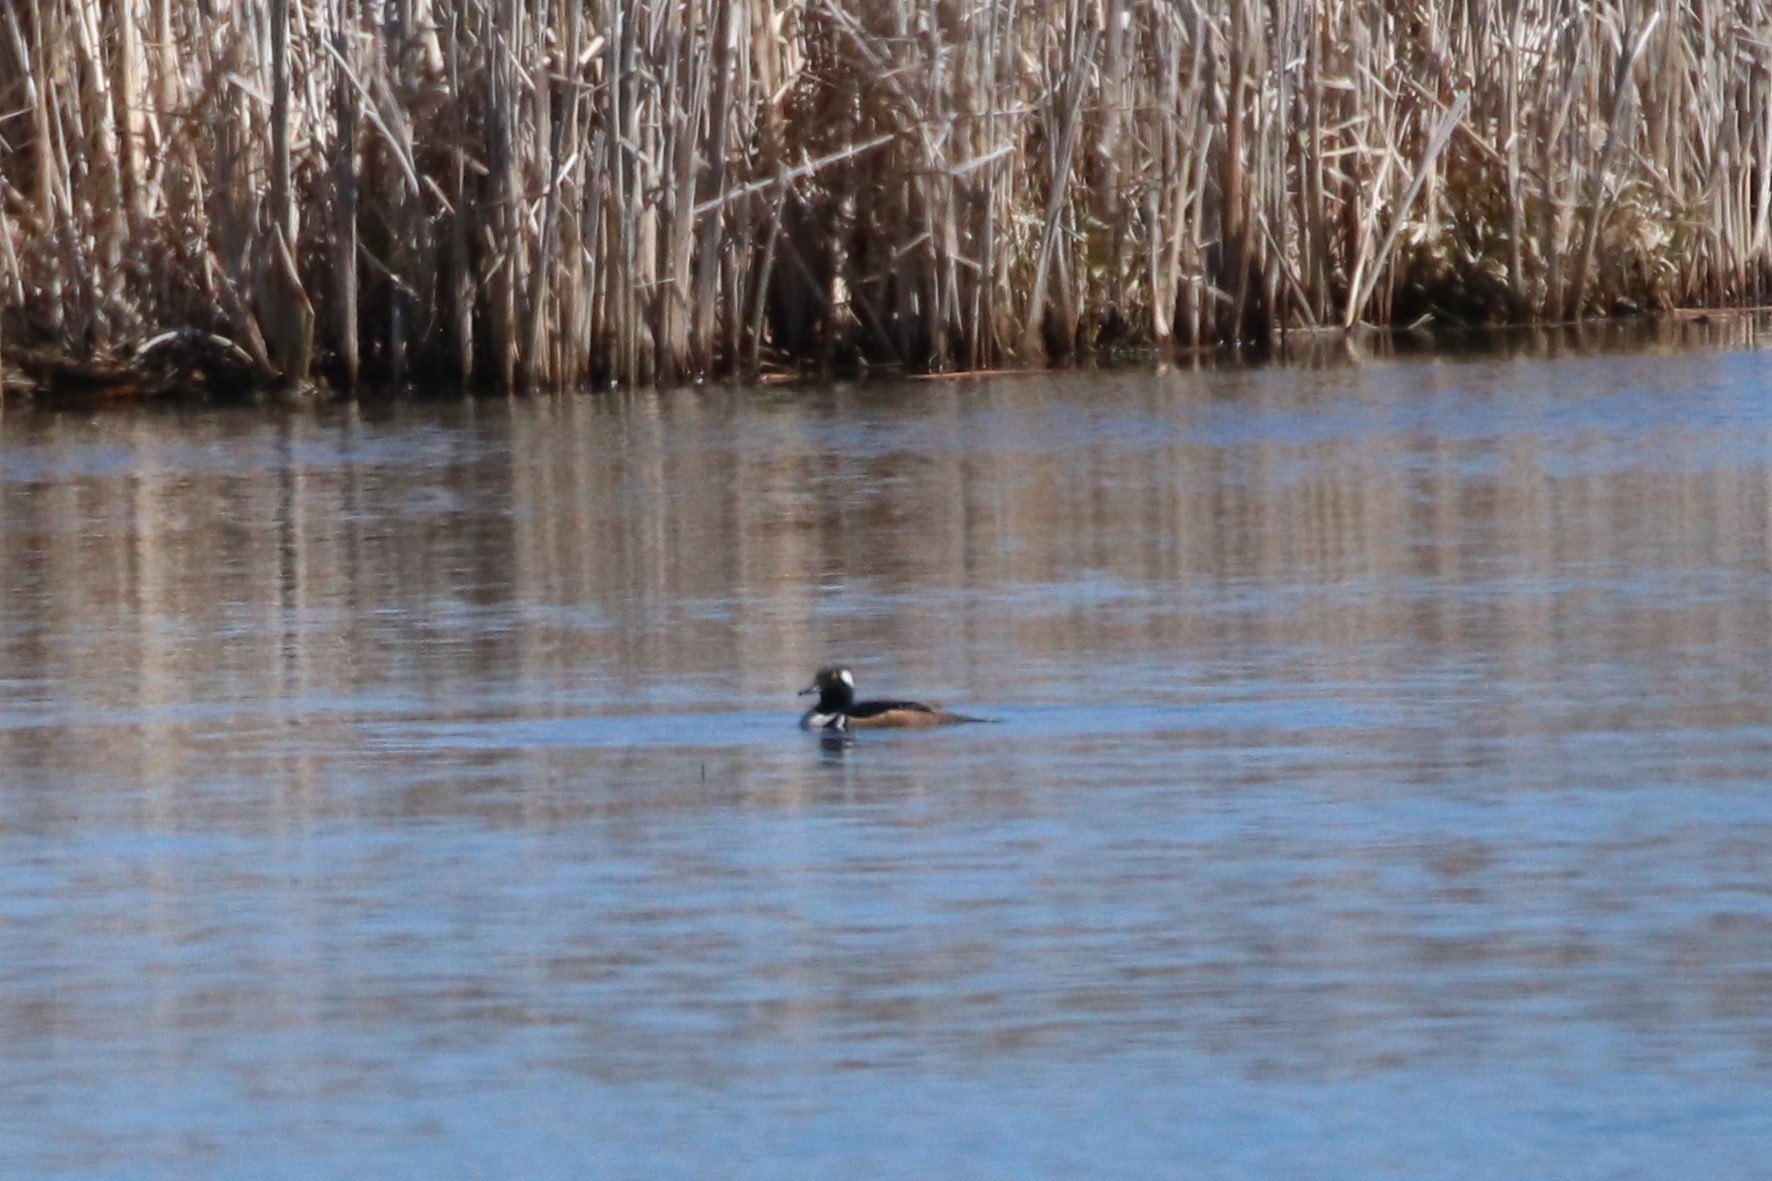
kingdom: Animalia
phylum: Chordata
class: Aves
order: Anseriformes
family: Anatidae
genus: Lophodytes
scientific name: Lophodytes cucullatus
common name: Hooded merganser
